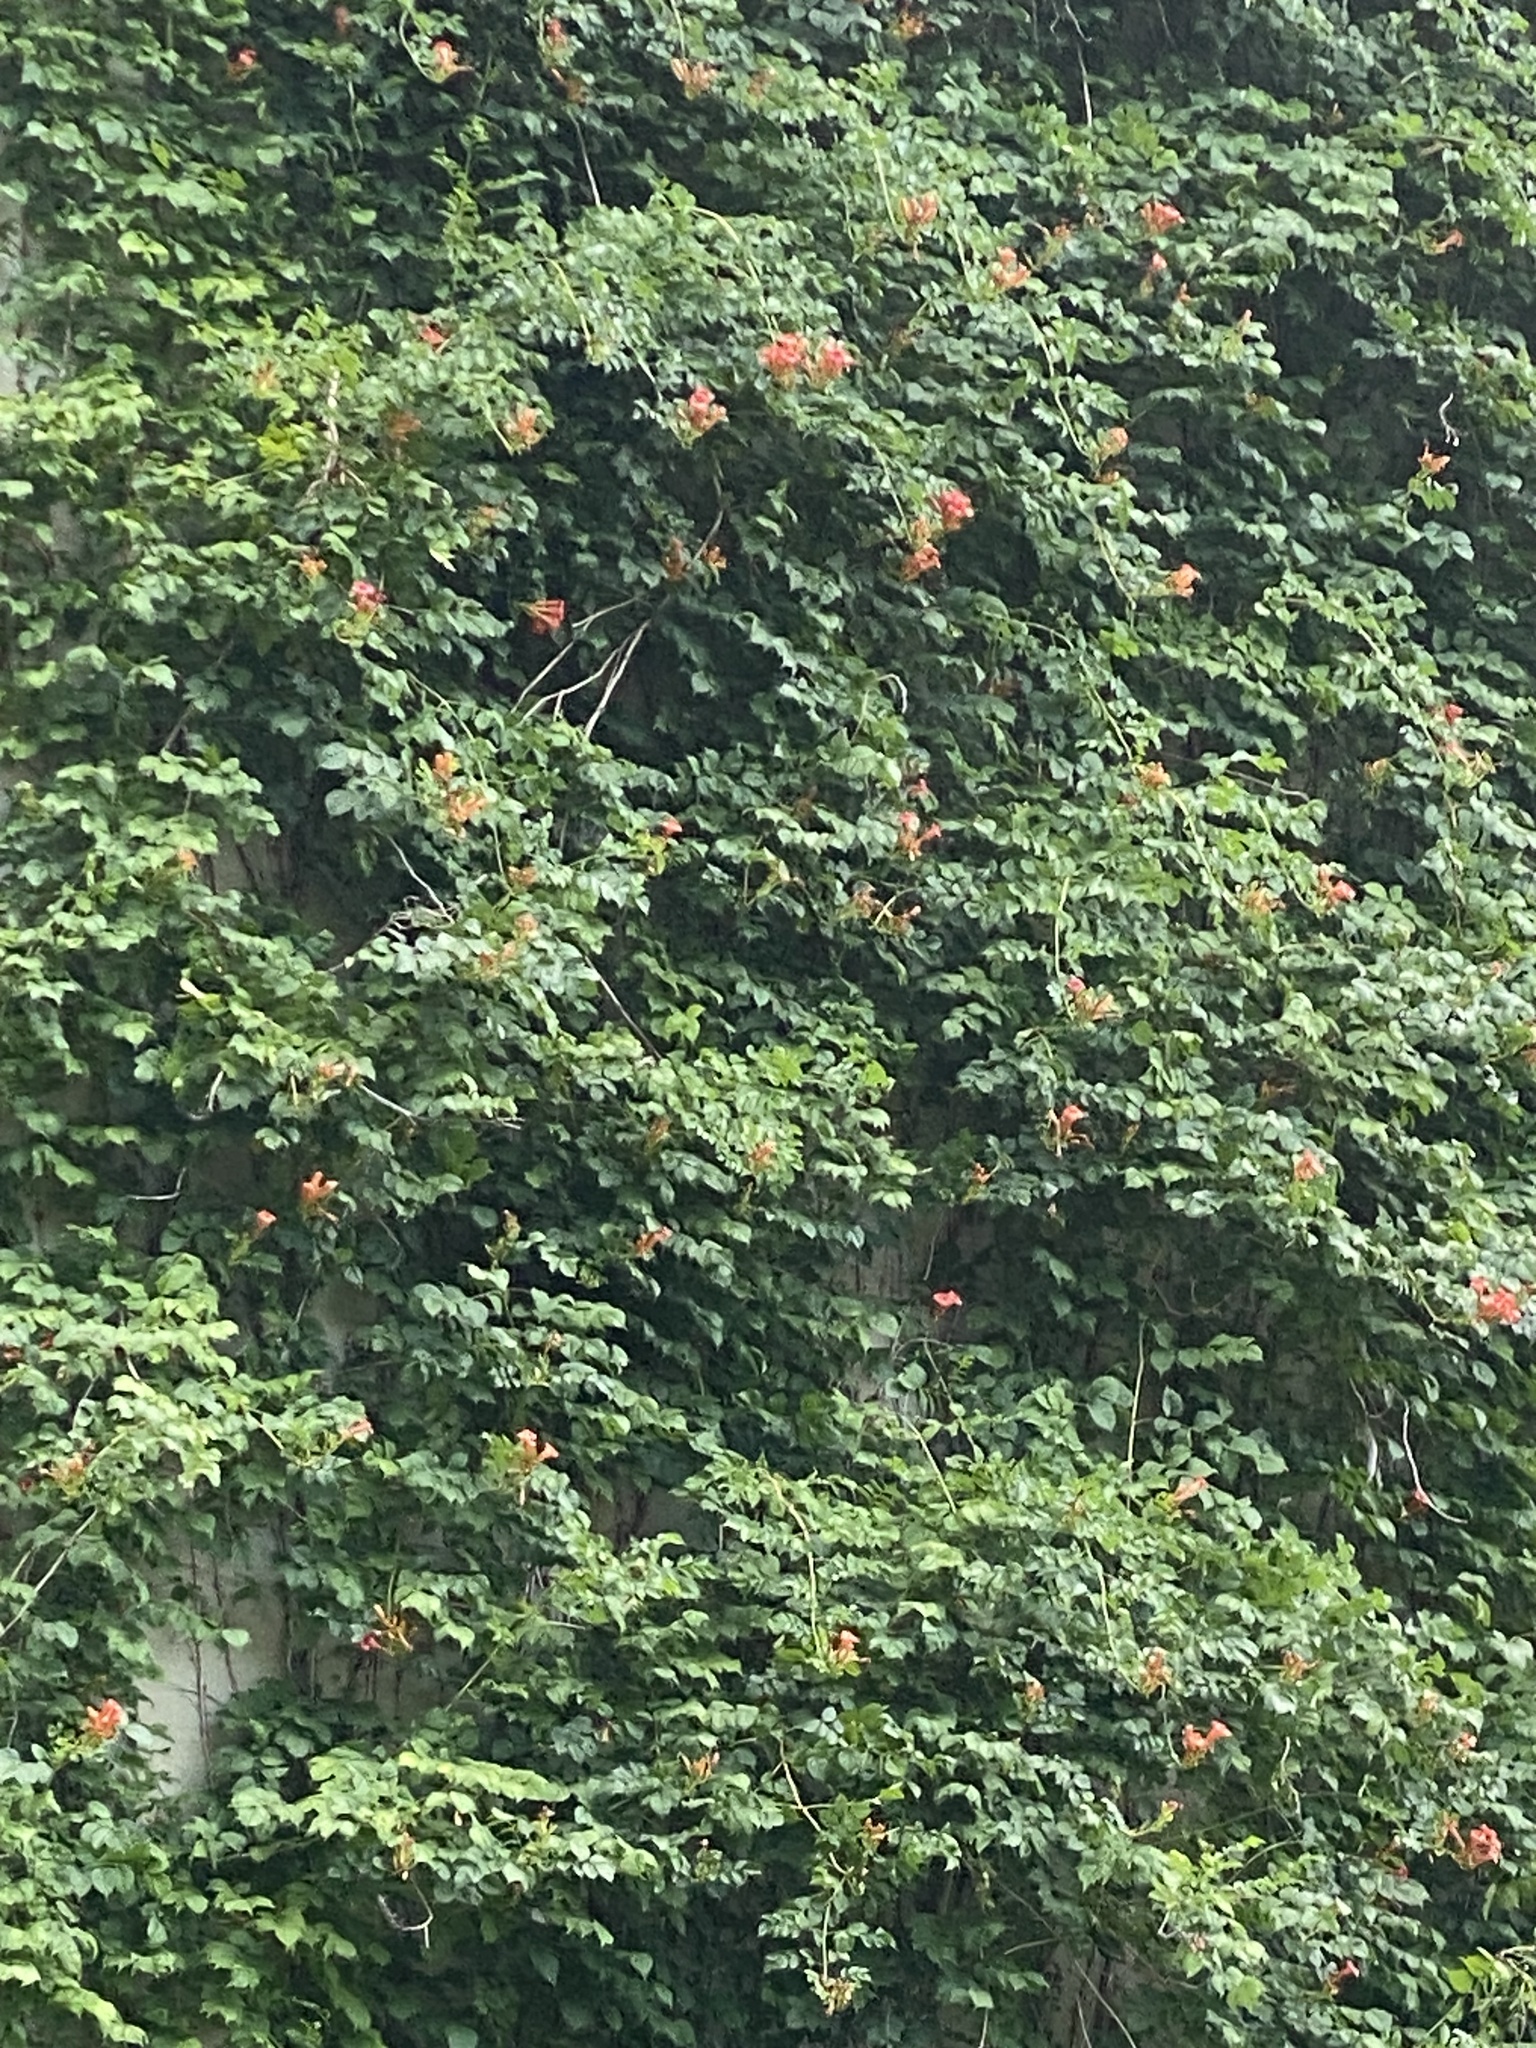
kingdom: Plantae
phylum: Tracheophyta
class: Magnoliopsida
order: Lamiales
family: Bignoniaceae
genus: Campsis
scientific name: Campsis radicans
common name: Trumpet-creeper
